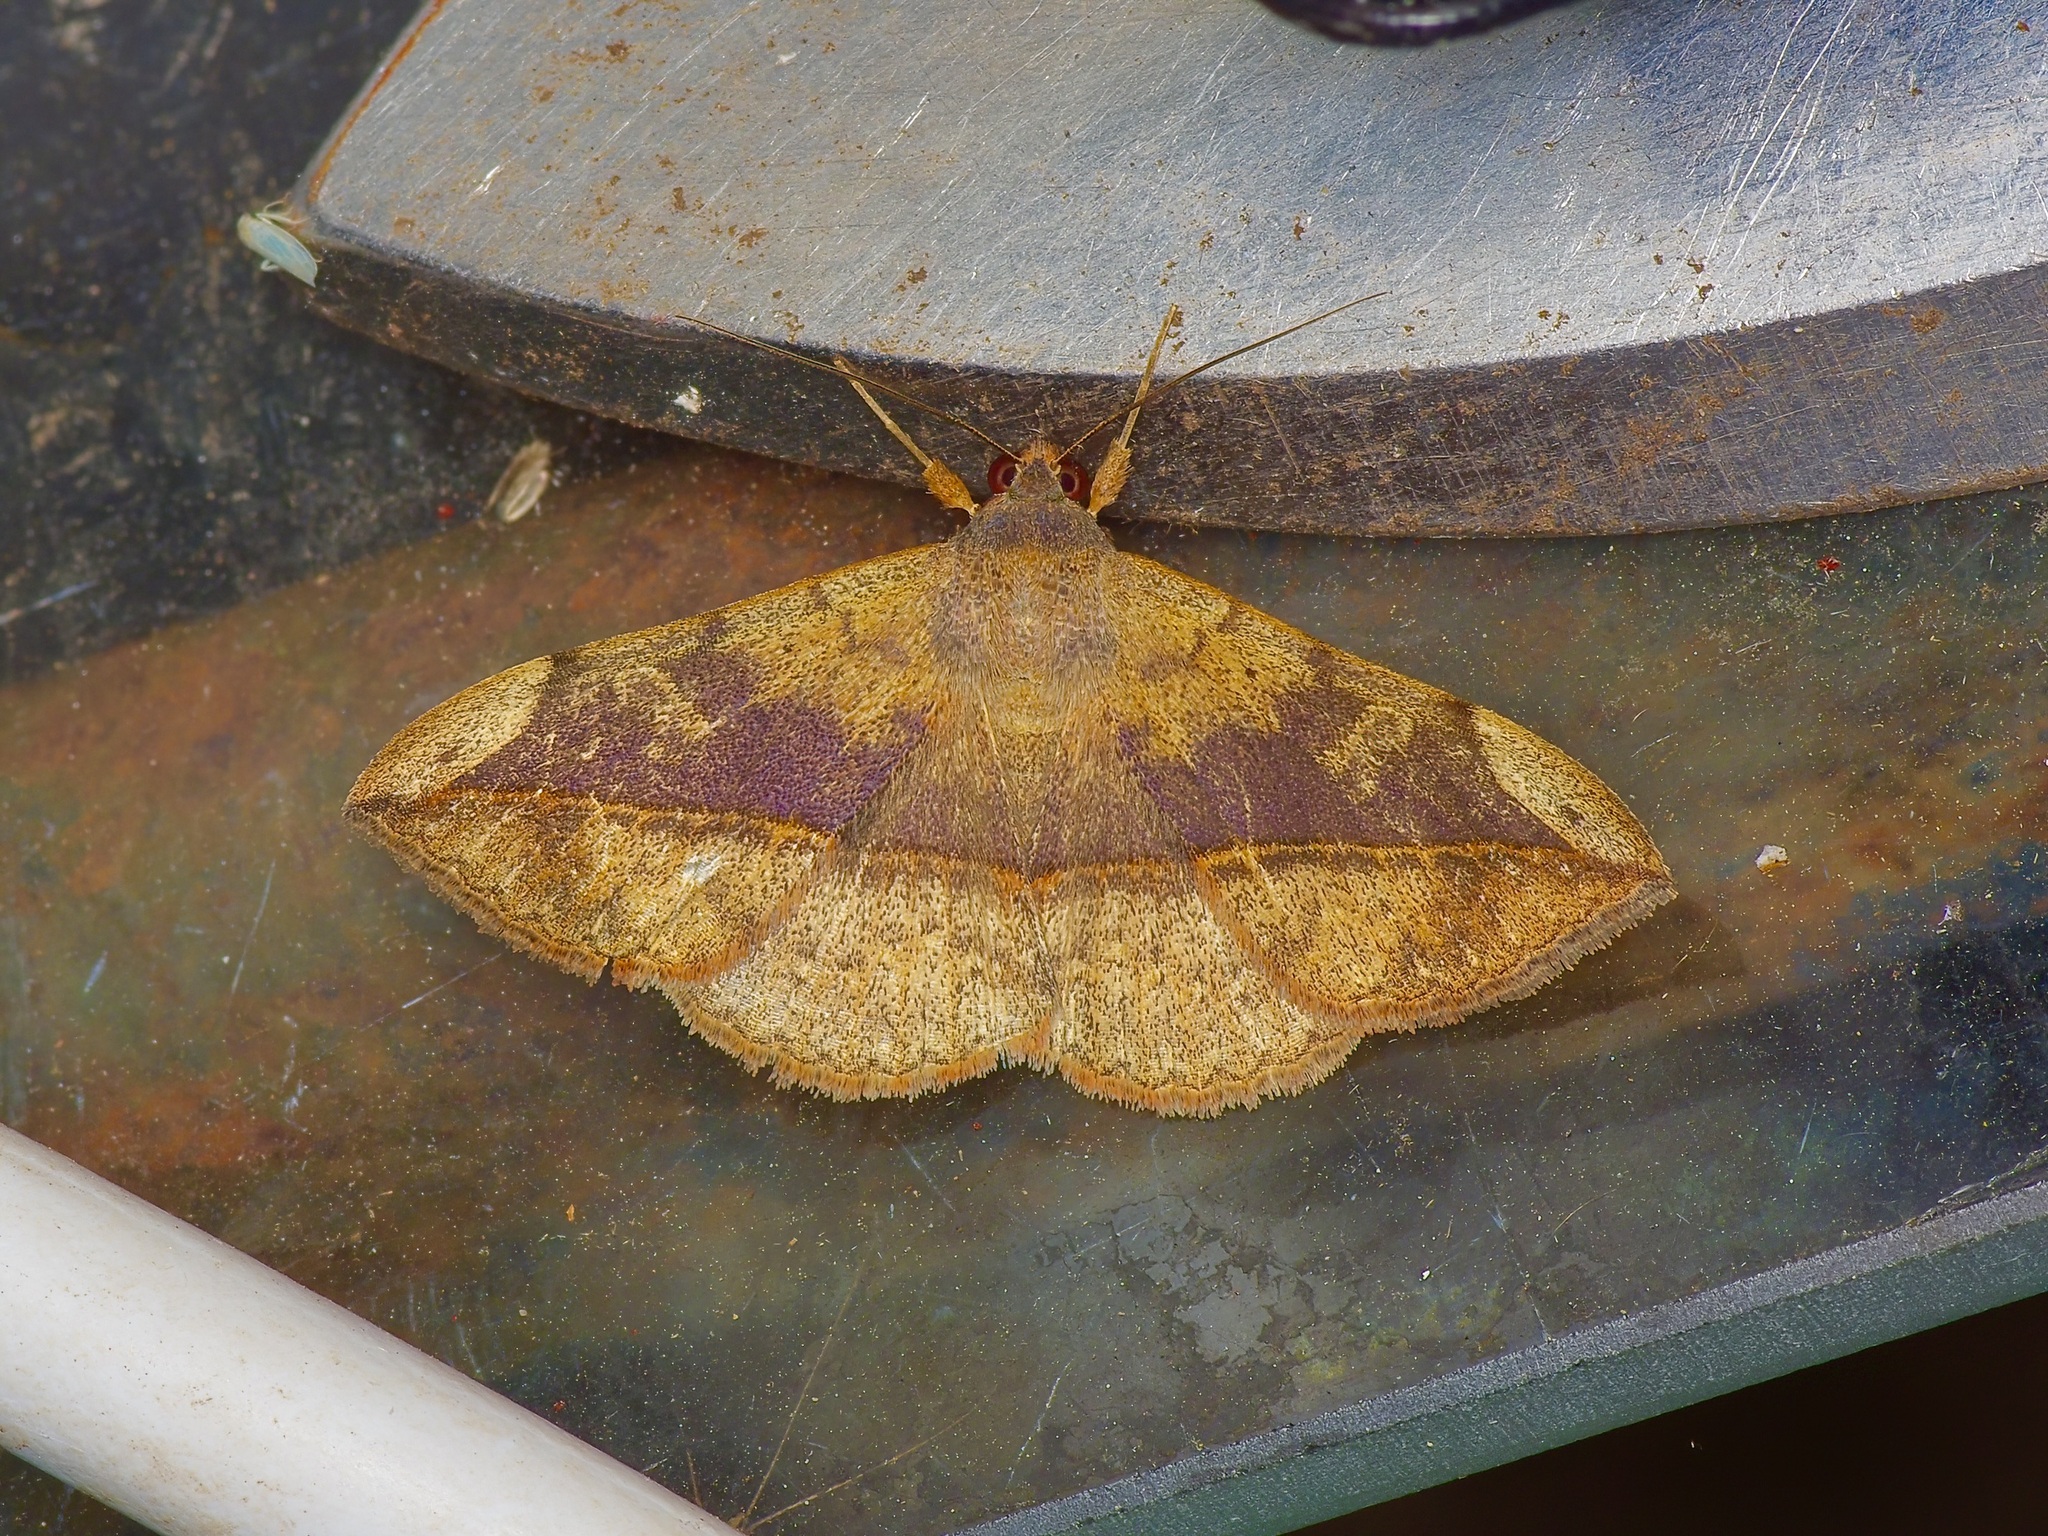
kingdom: Animalia
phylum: Arthropoda
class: Insecta
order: Lepidoptera
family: Erebidae
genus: Anticarsia
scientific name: Anticarsia gemmatalis
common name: Cutworm moth
